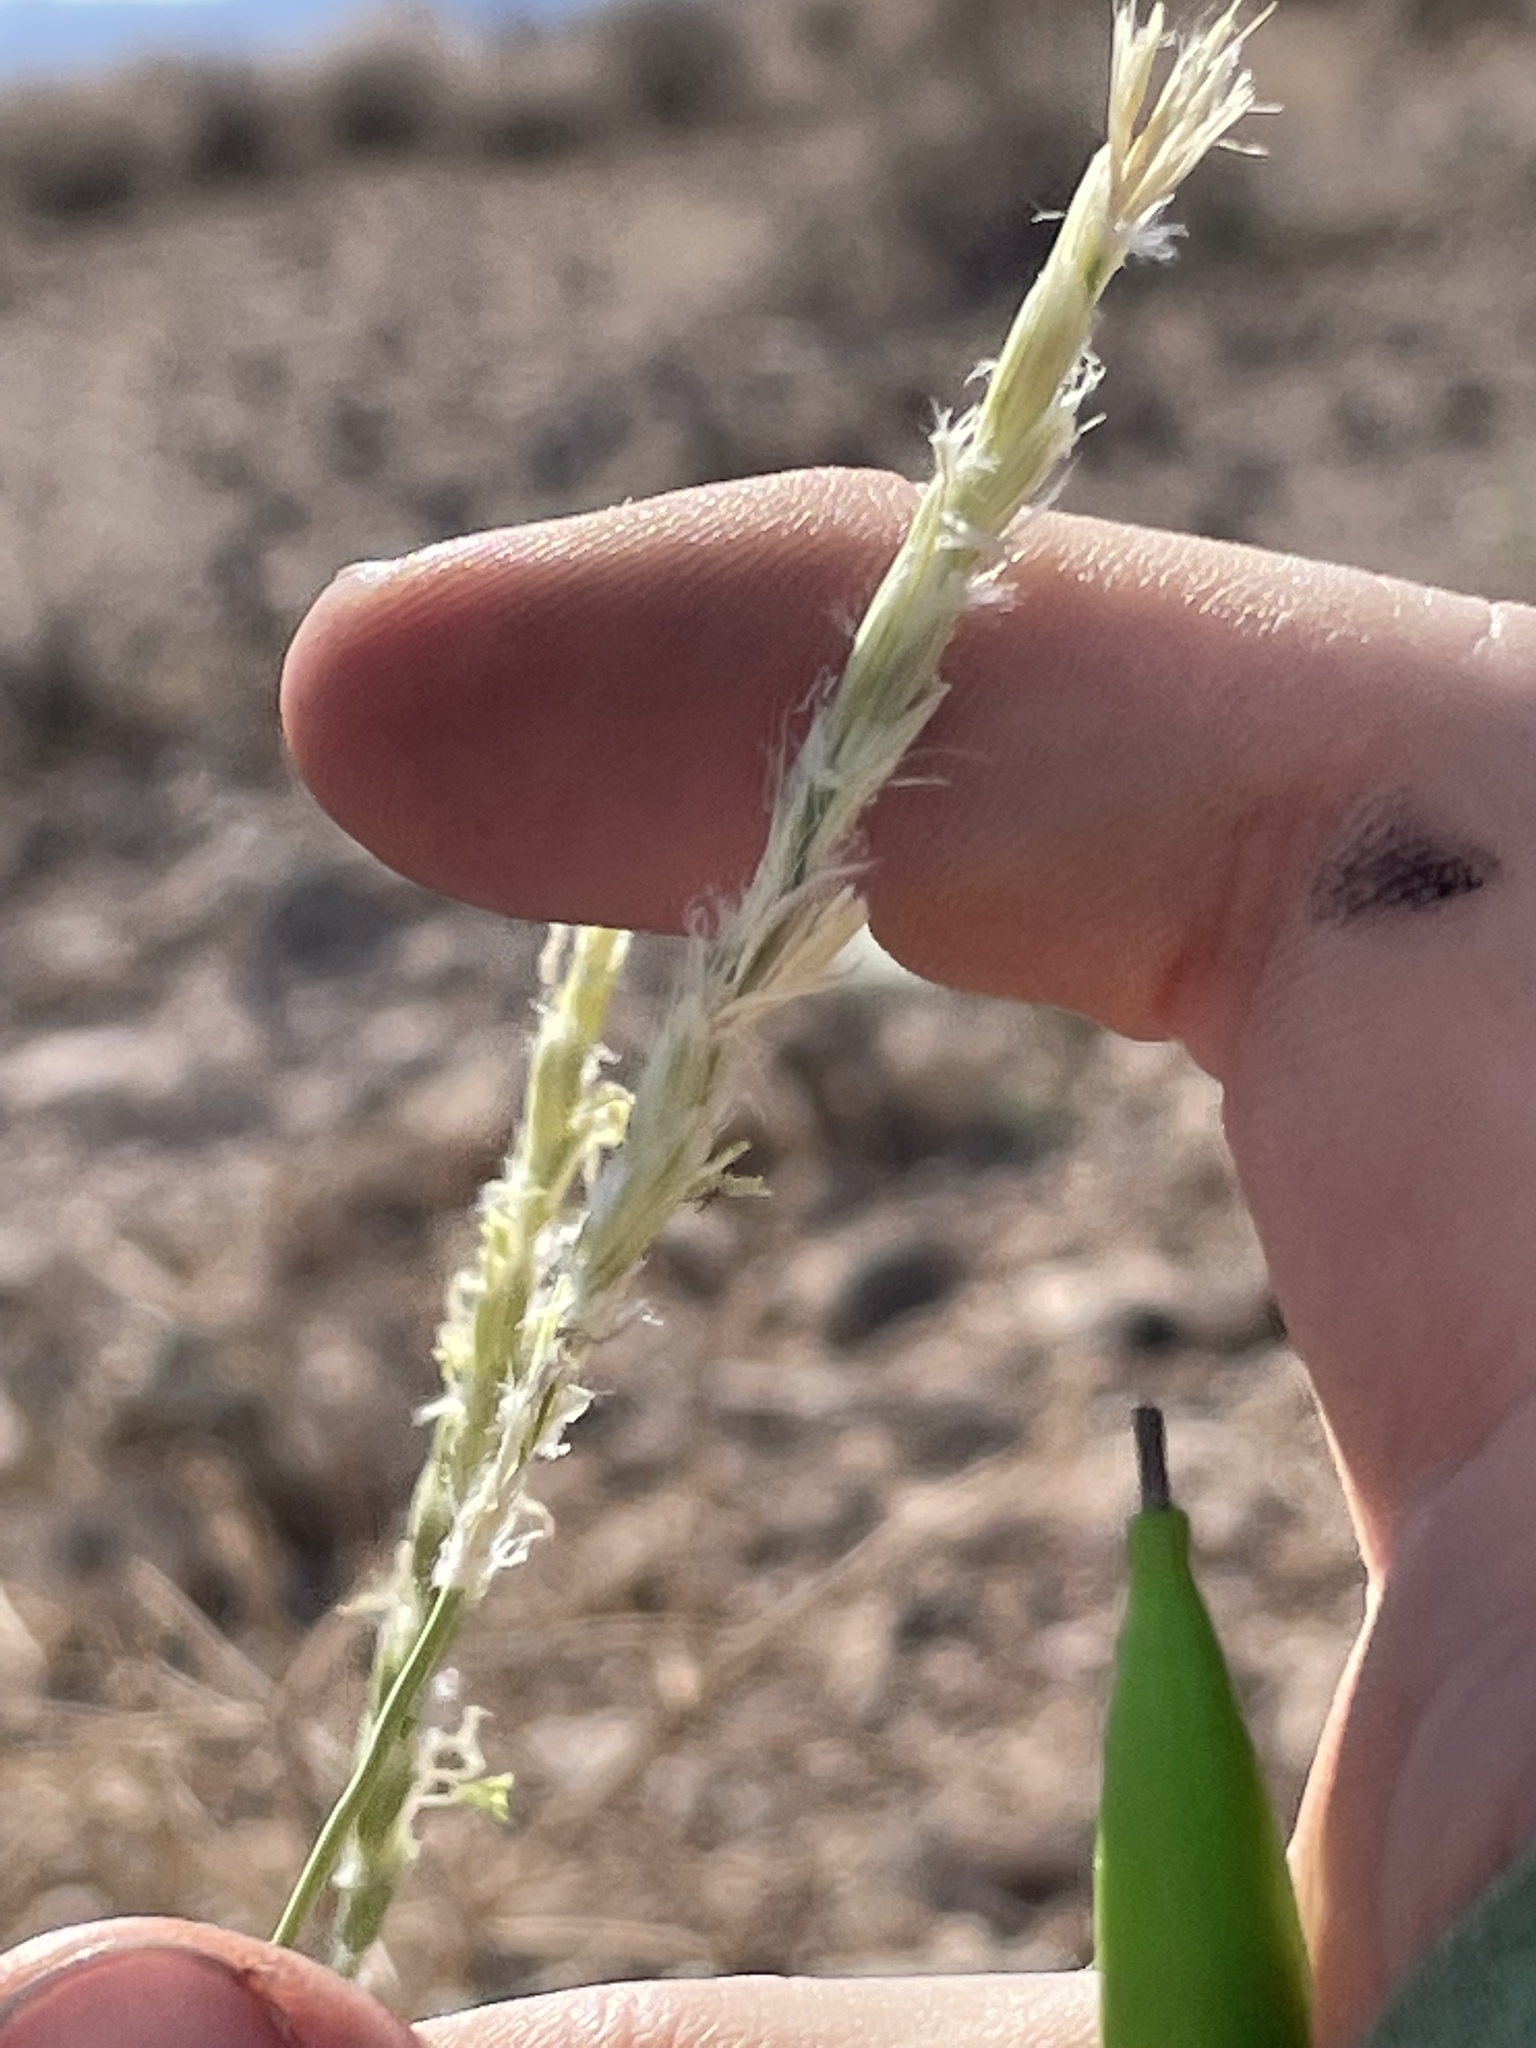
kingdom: Plantae
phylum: Tracheophyta
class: Liliopsida
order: Poales
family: Poaceae
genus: Hilaria
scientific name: Hilaria rigida
